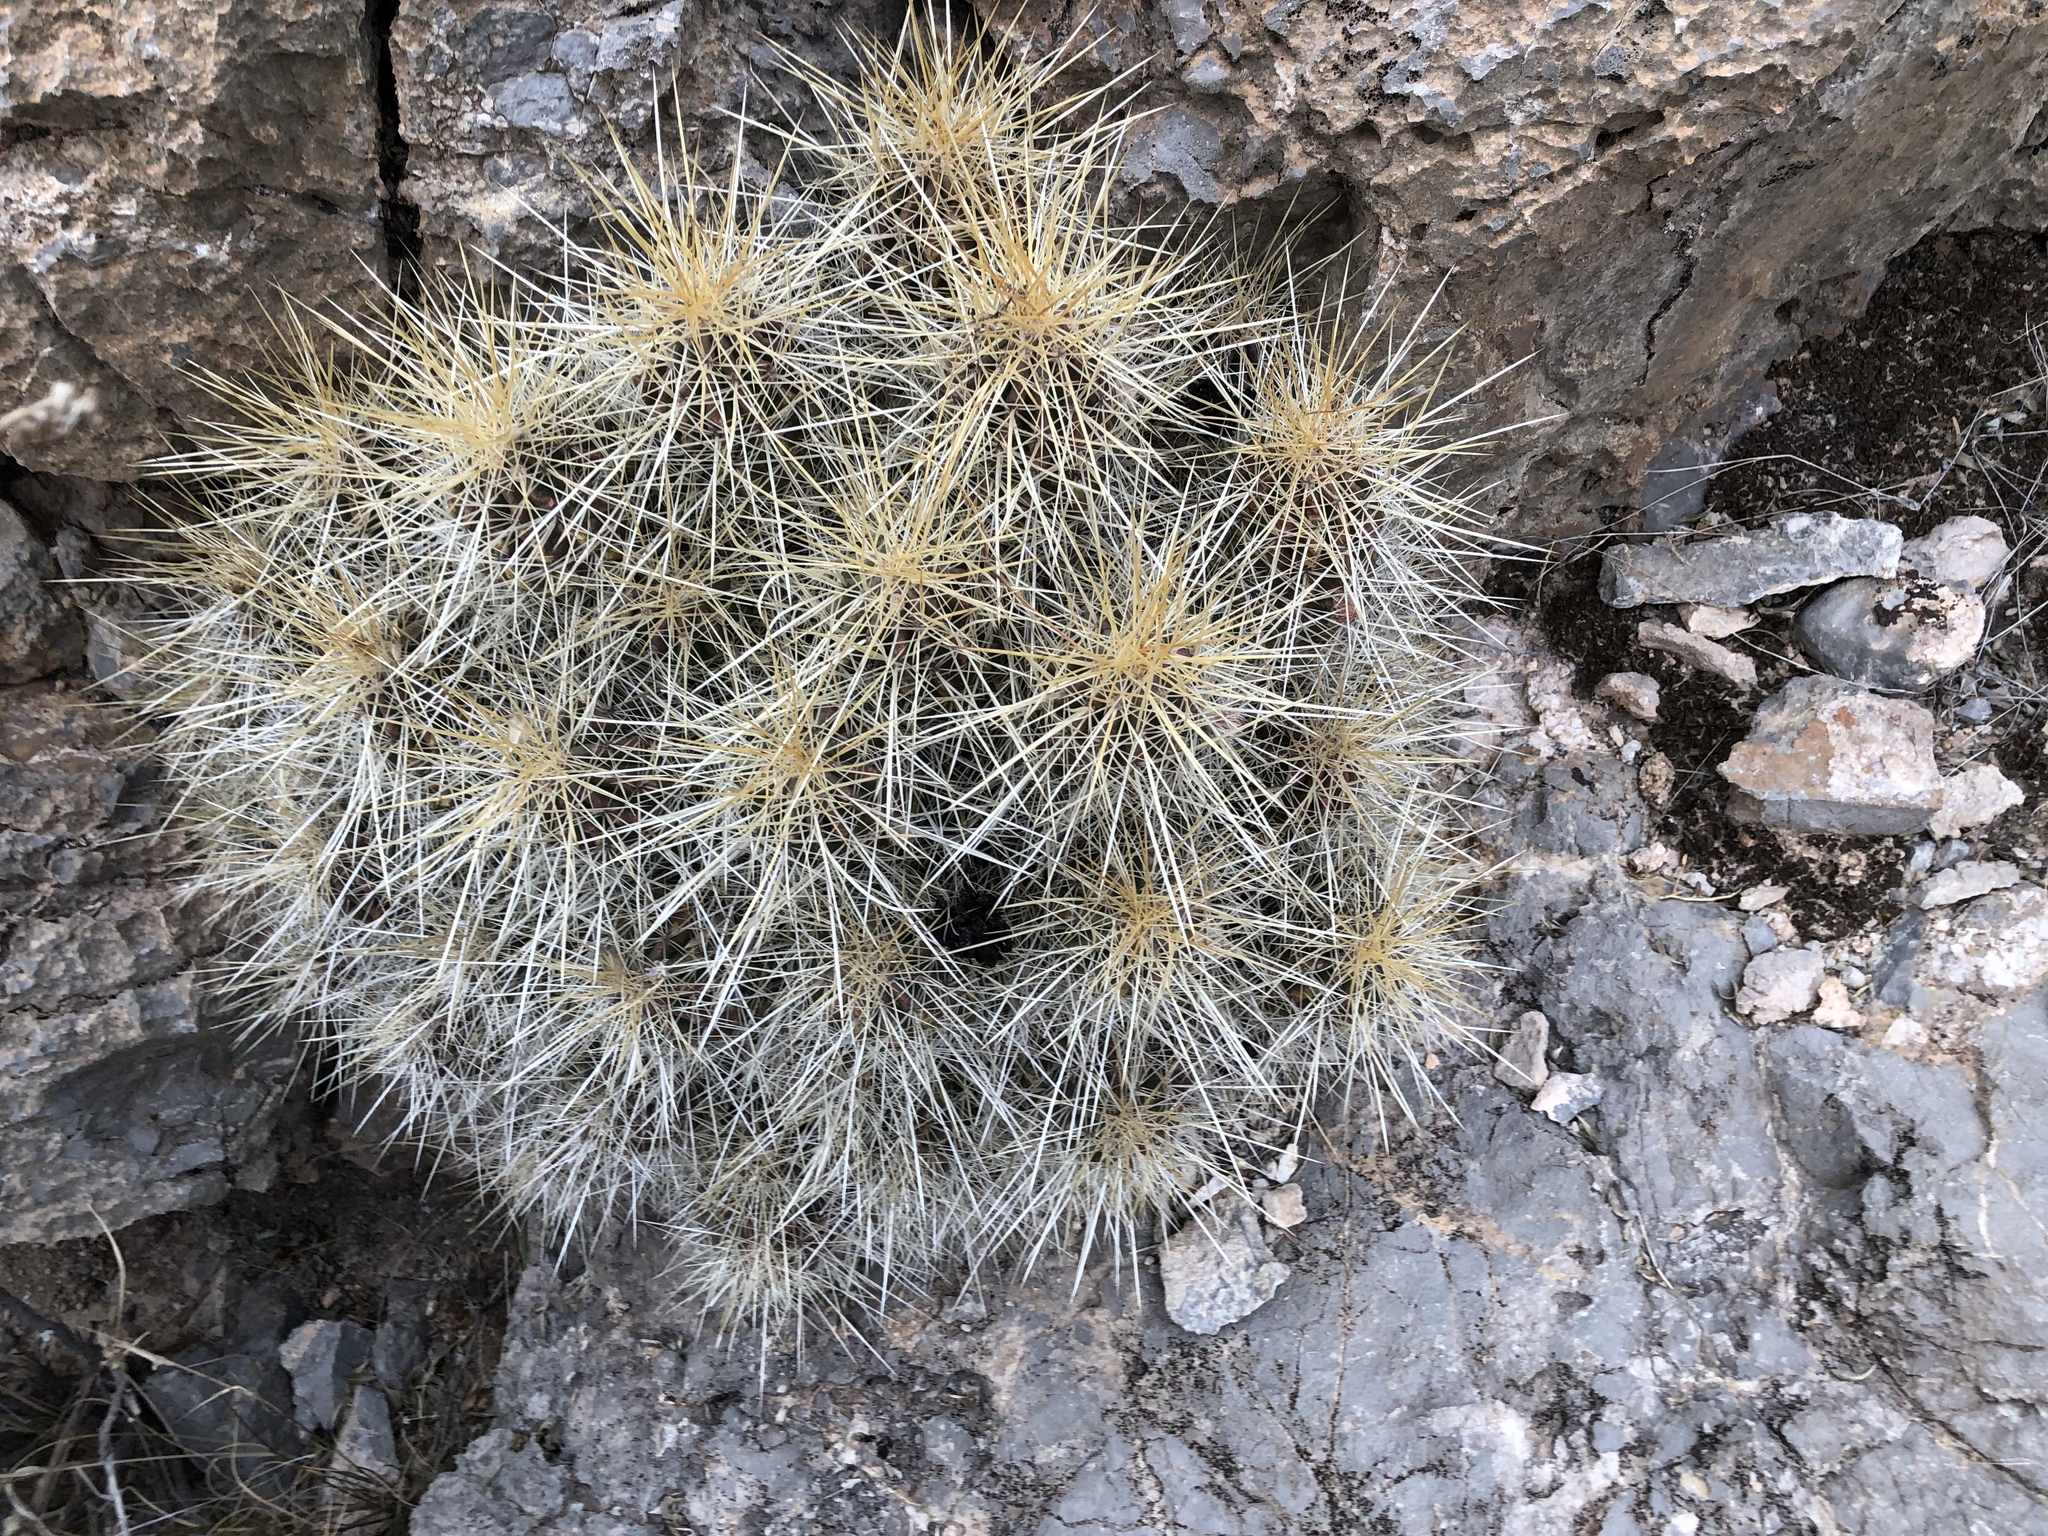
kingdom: Plantae
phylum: Tracheophyta
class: Magnoliopsida
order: Caryophyllales
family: Cactaceae
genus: Echinocereus
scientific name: Echinocereus stramineus
